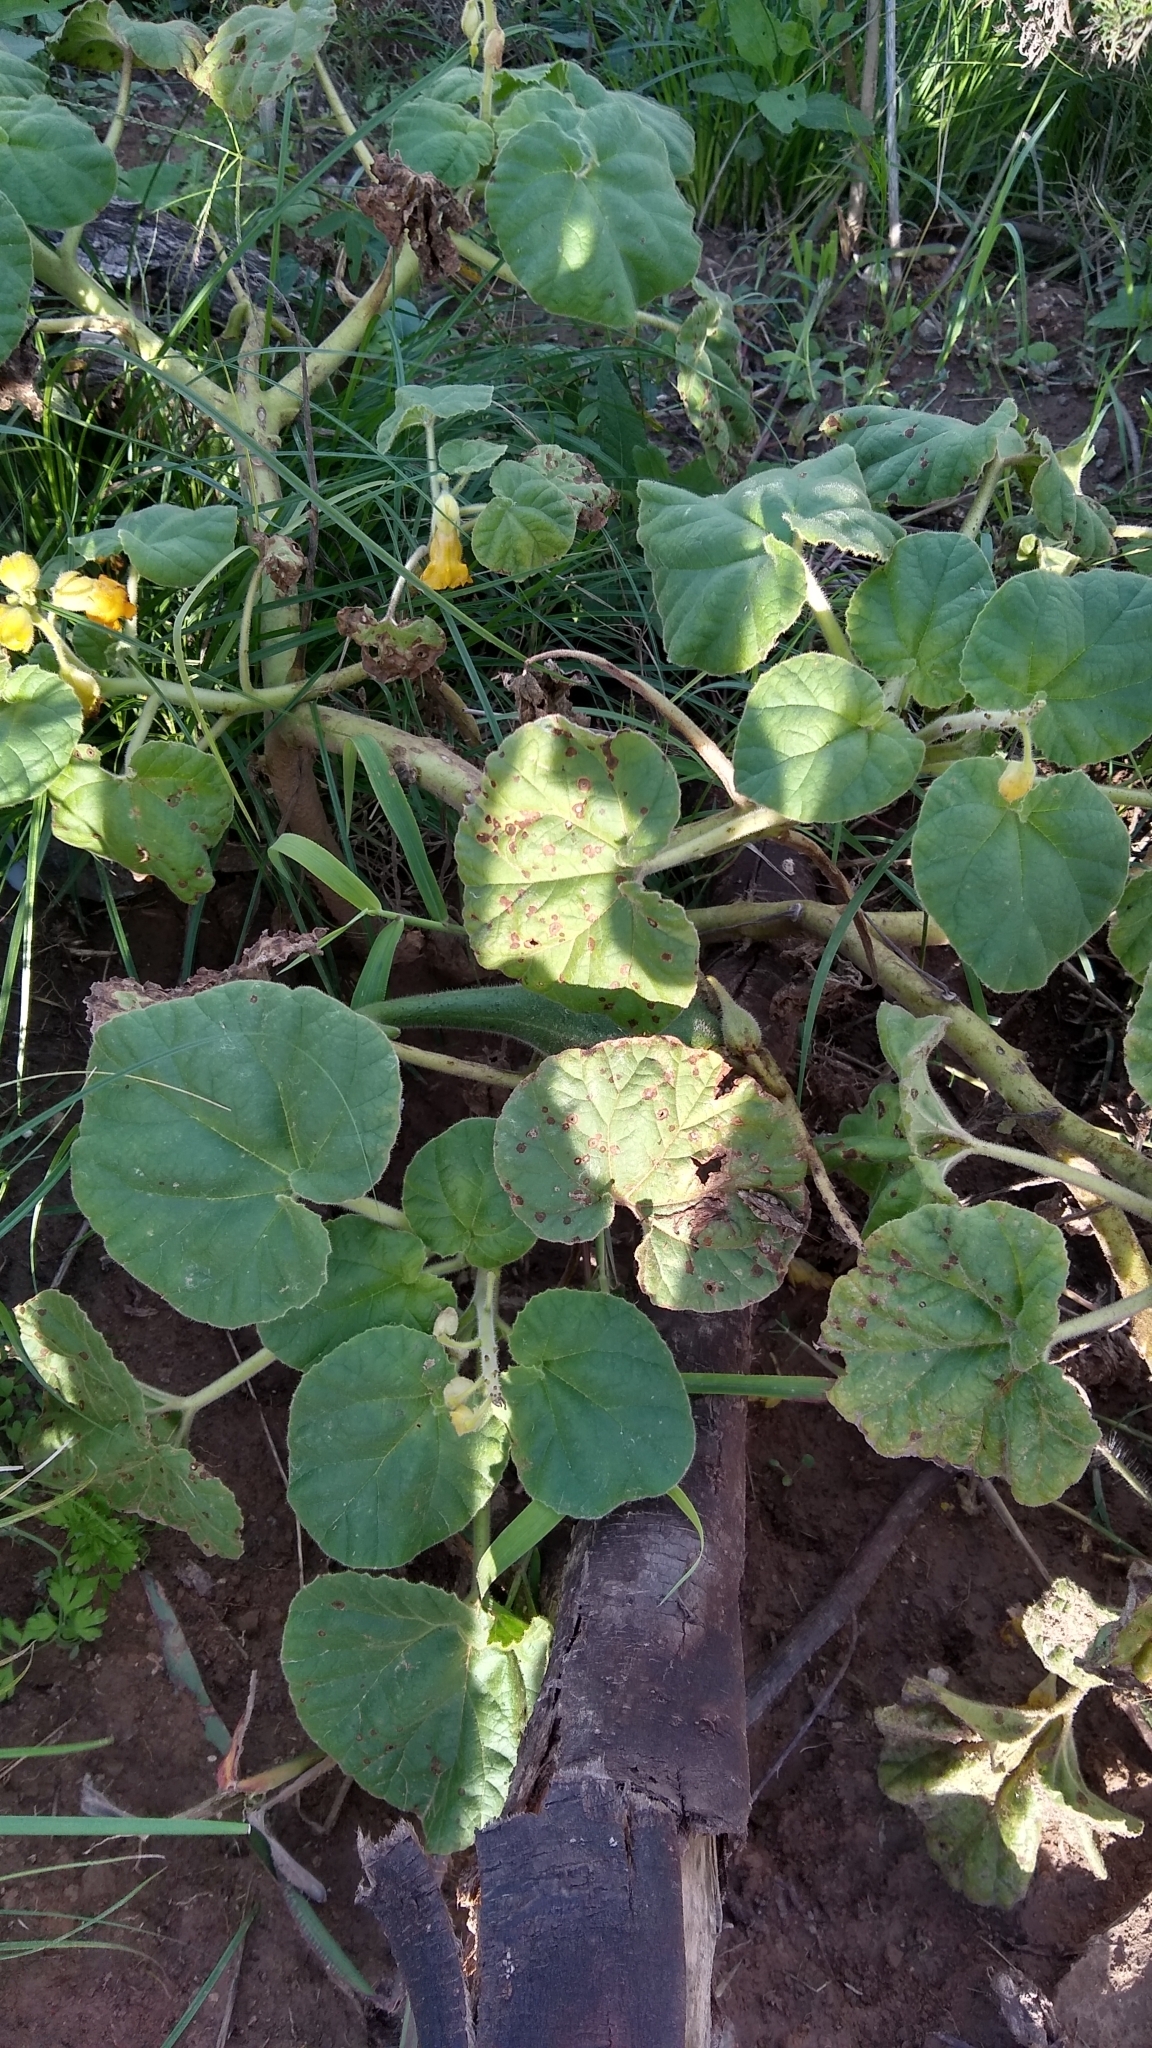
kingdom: Plantae
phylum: Tracheophyta
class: Magnoliopsida
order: Lamiales
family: Martyniaceae
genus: Ibicella
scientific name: Ibicella lutea
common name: Yellow unicorn-plant
